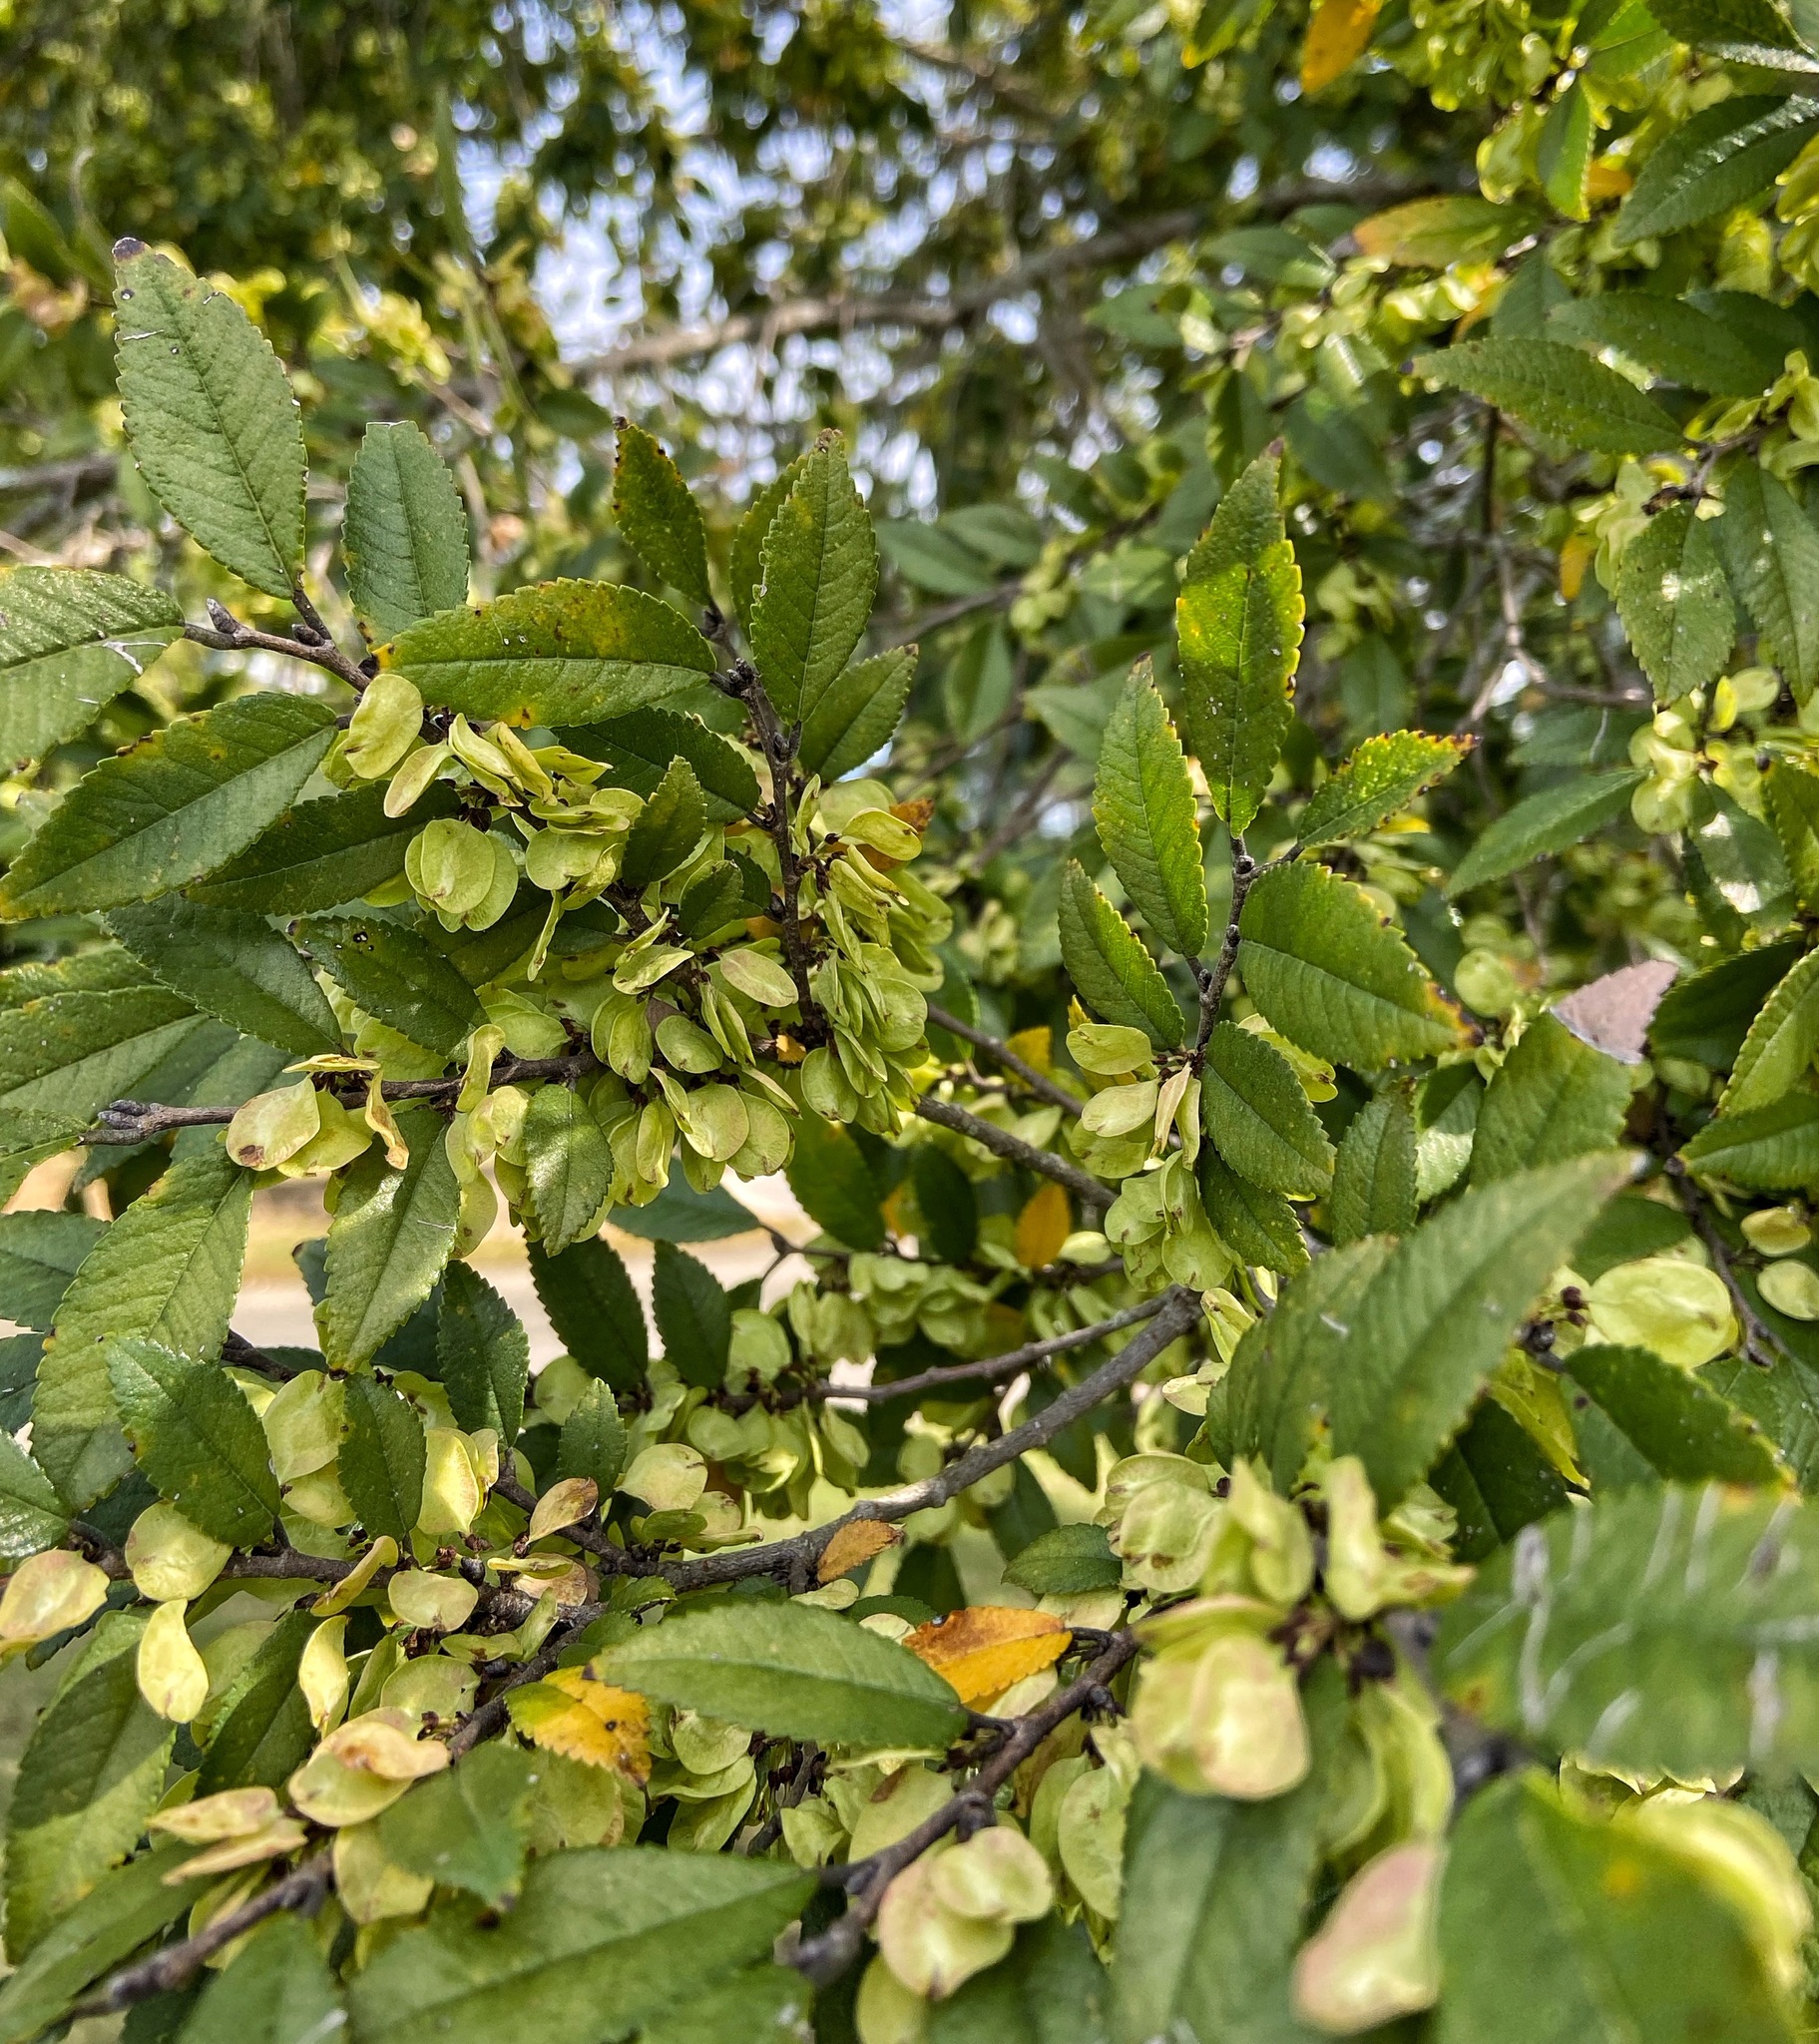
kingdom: Plantae
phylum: Tracheophyta
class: Magnoliopsida
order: Rosales
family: Ulmaceae
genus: Ulmus
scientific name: Ulmus parvifolia
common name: Chinese elm
